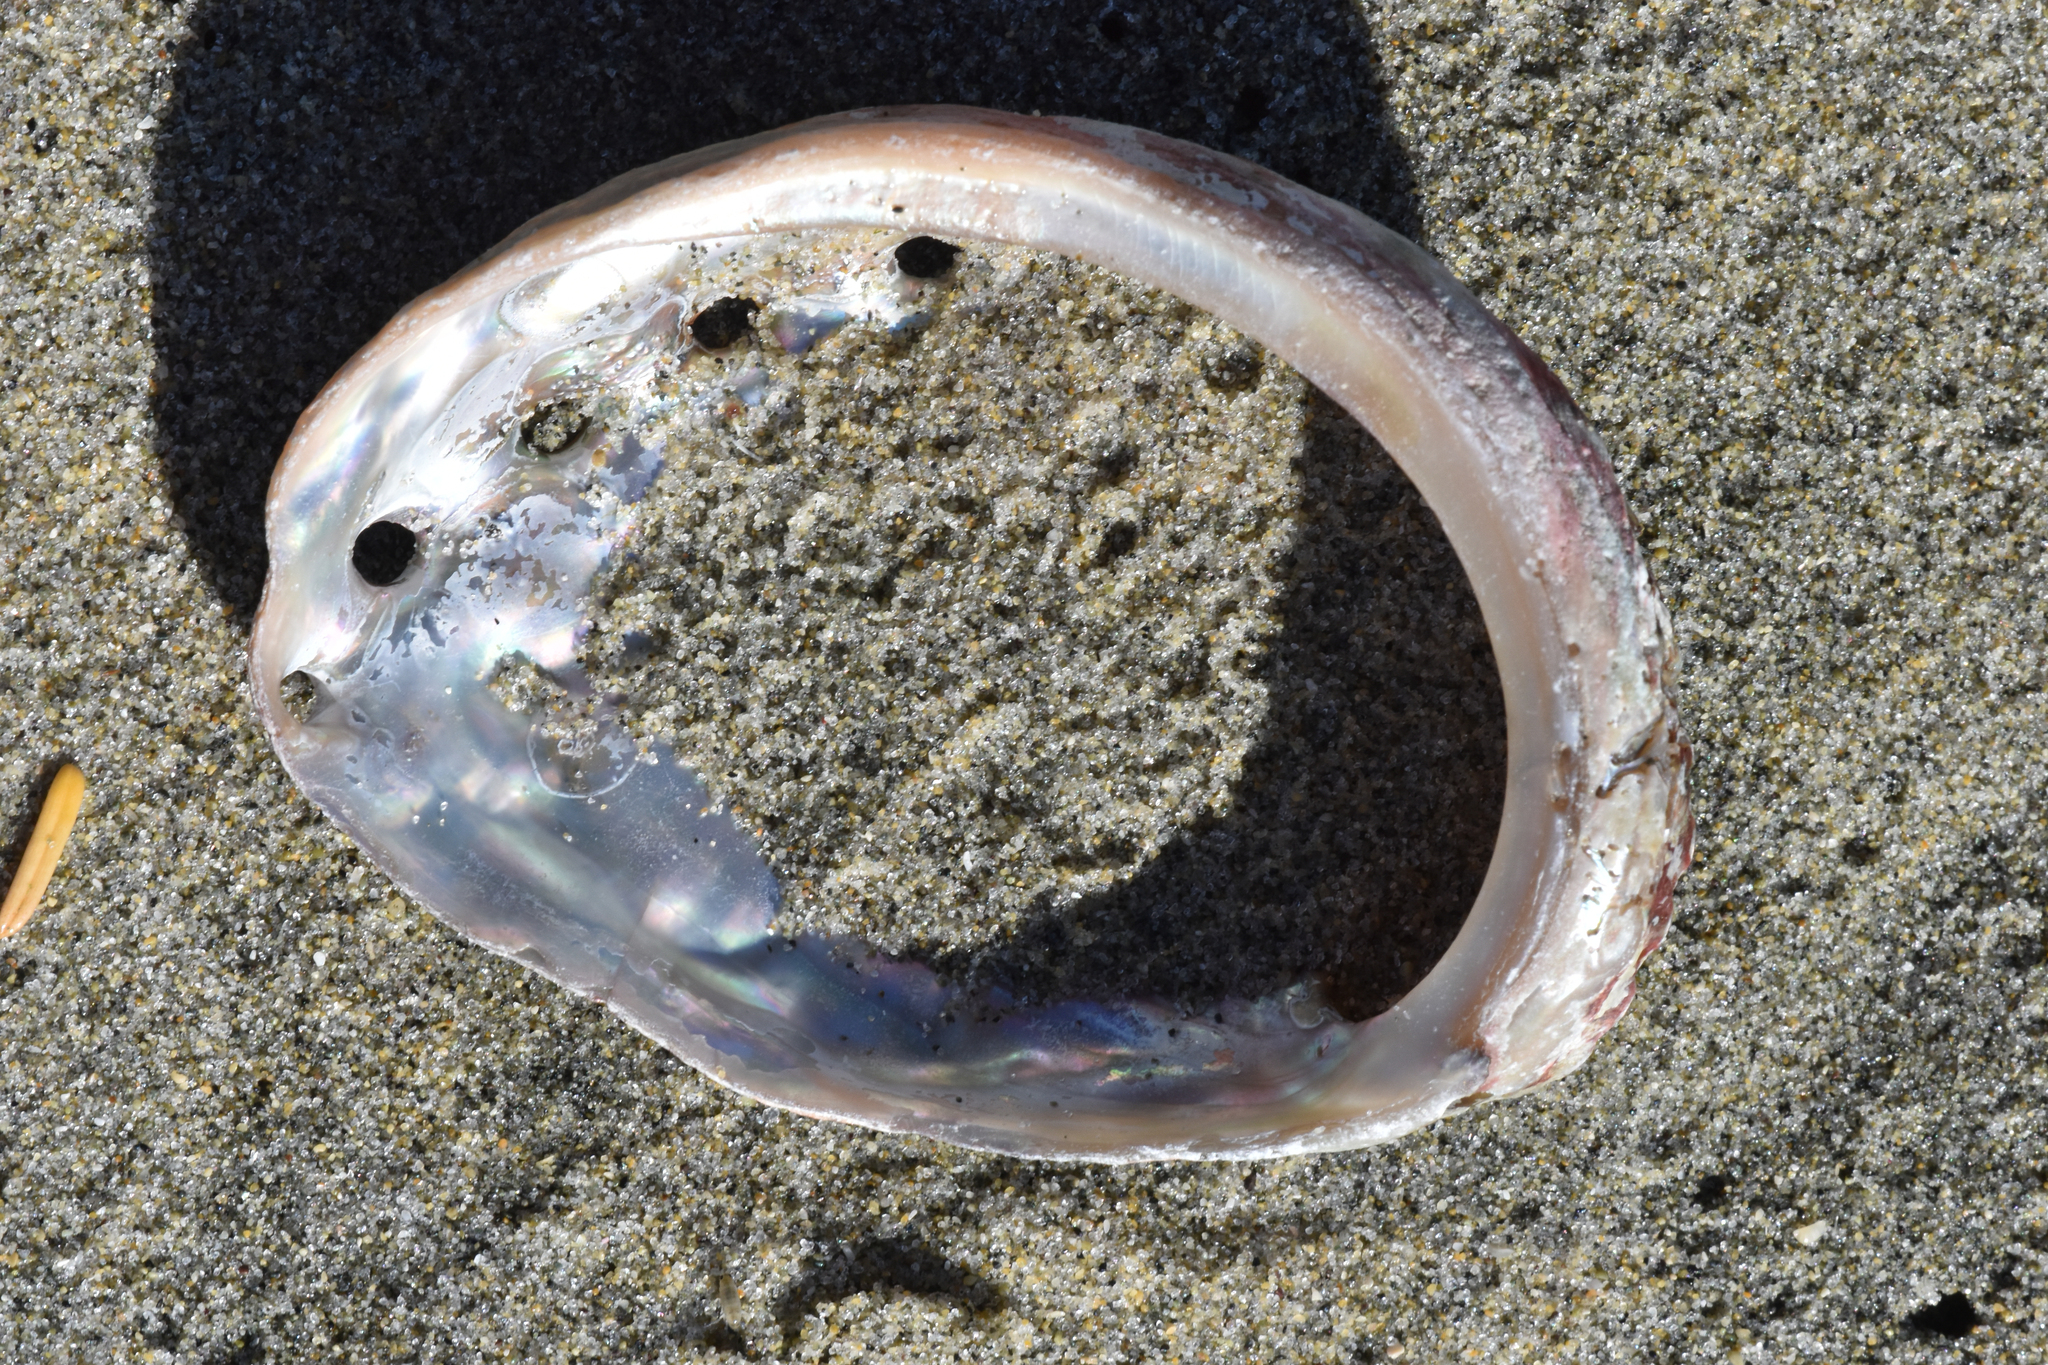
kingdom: Animalia
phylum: Mollusca
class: Gastropoda
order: Lepetellida
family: Haliotidae
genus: Haliotis
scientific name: Haliotis kamtschatkana
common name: Pinto abalone
